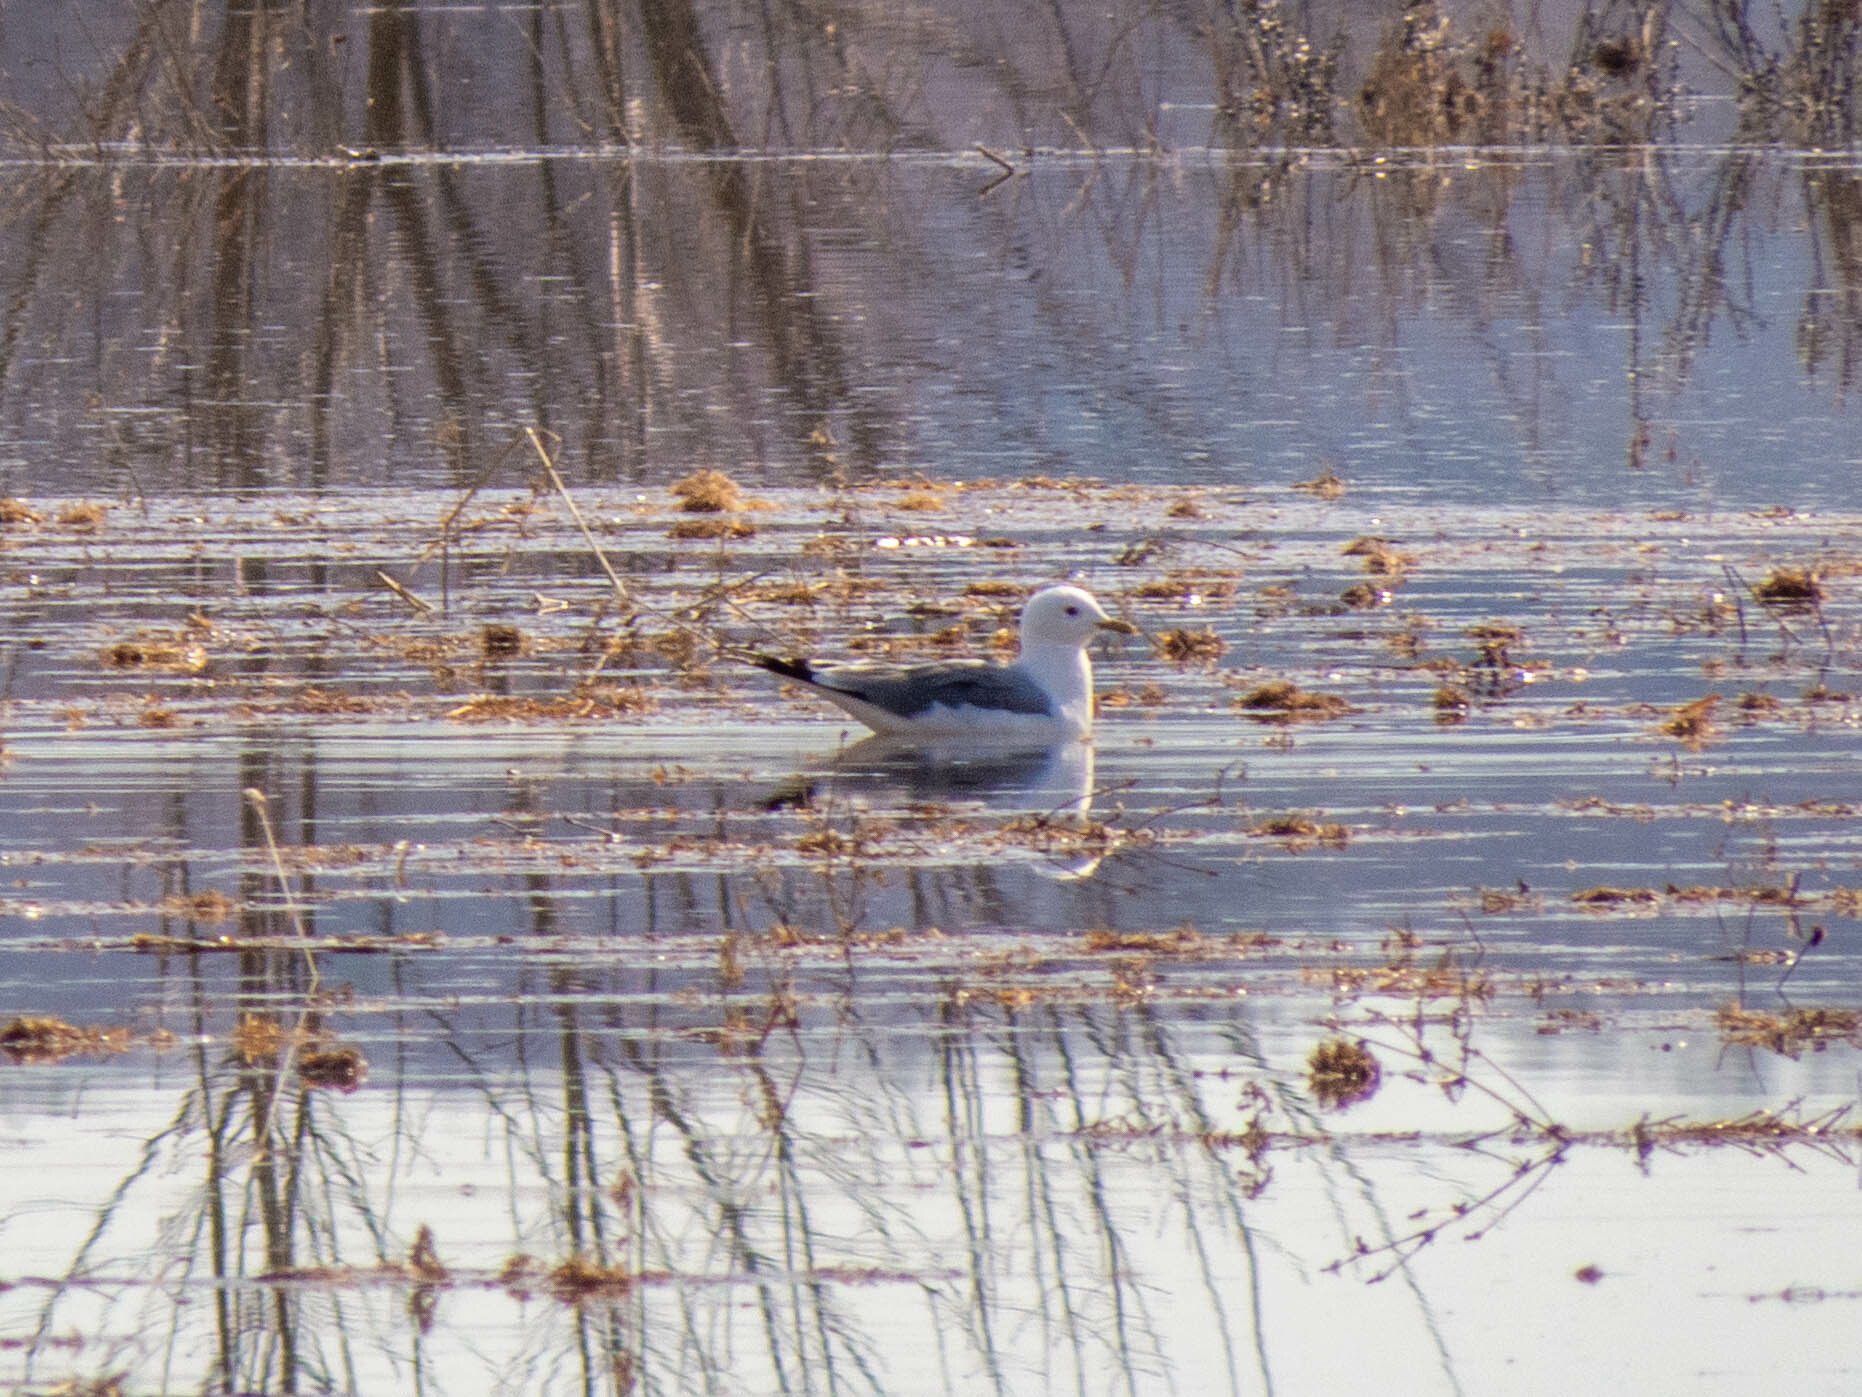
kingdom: Animalia
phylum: Chordata
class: Aves
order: Charadriiformes
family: Laridae
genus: Larus
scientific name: Larus canus
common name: Mew gull
